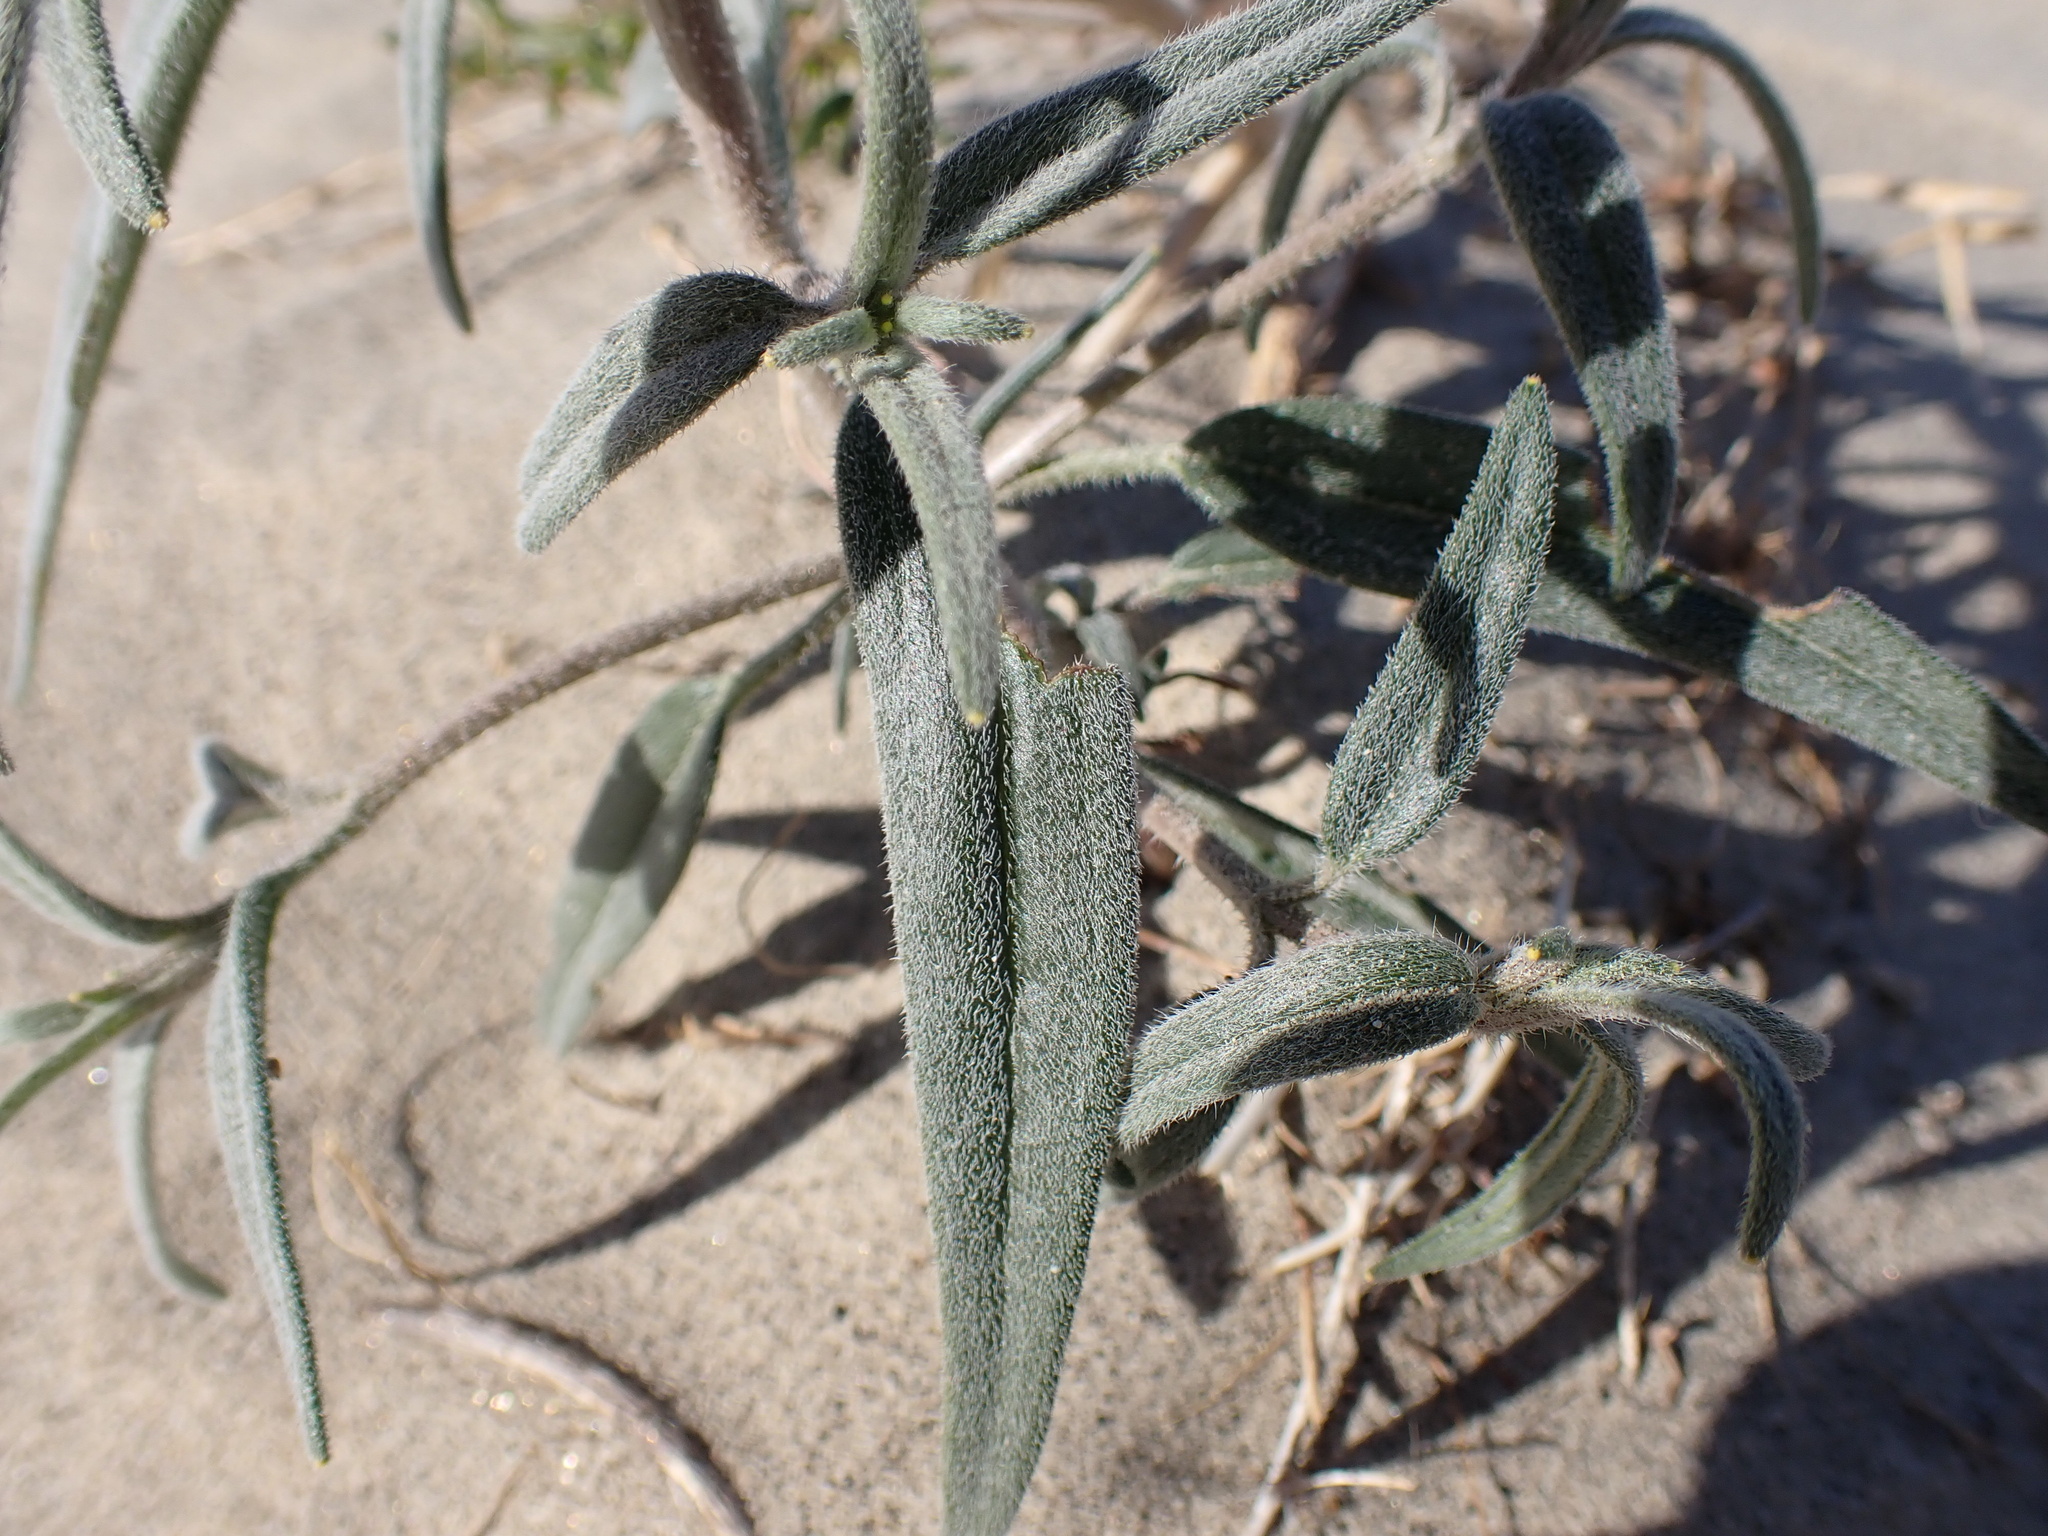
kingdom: Plantae
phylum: Tracheophyta
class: Magnoliopsida
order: Asterales
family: Asteraceae
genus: Palafoxia
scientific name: Palafoxia arida
